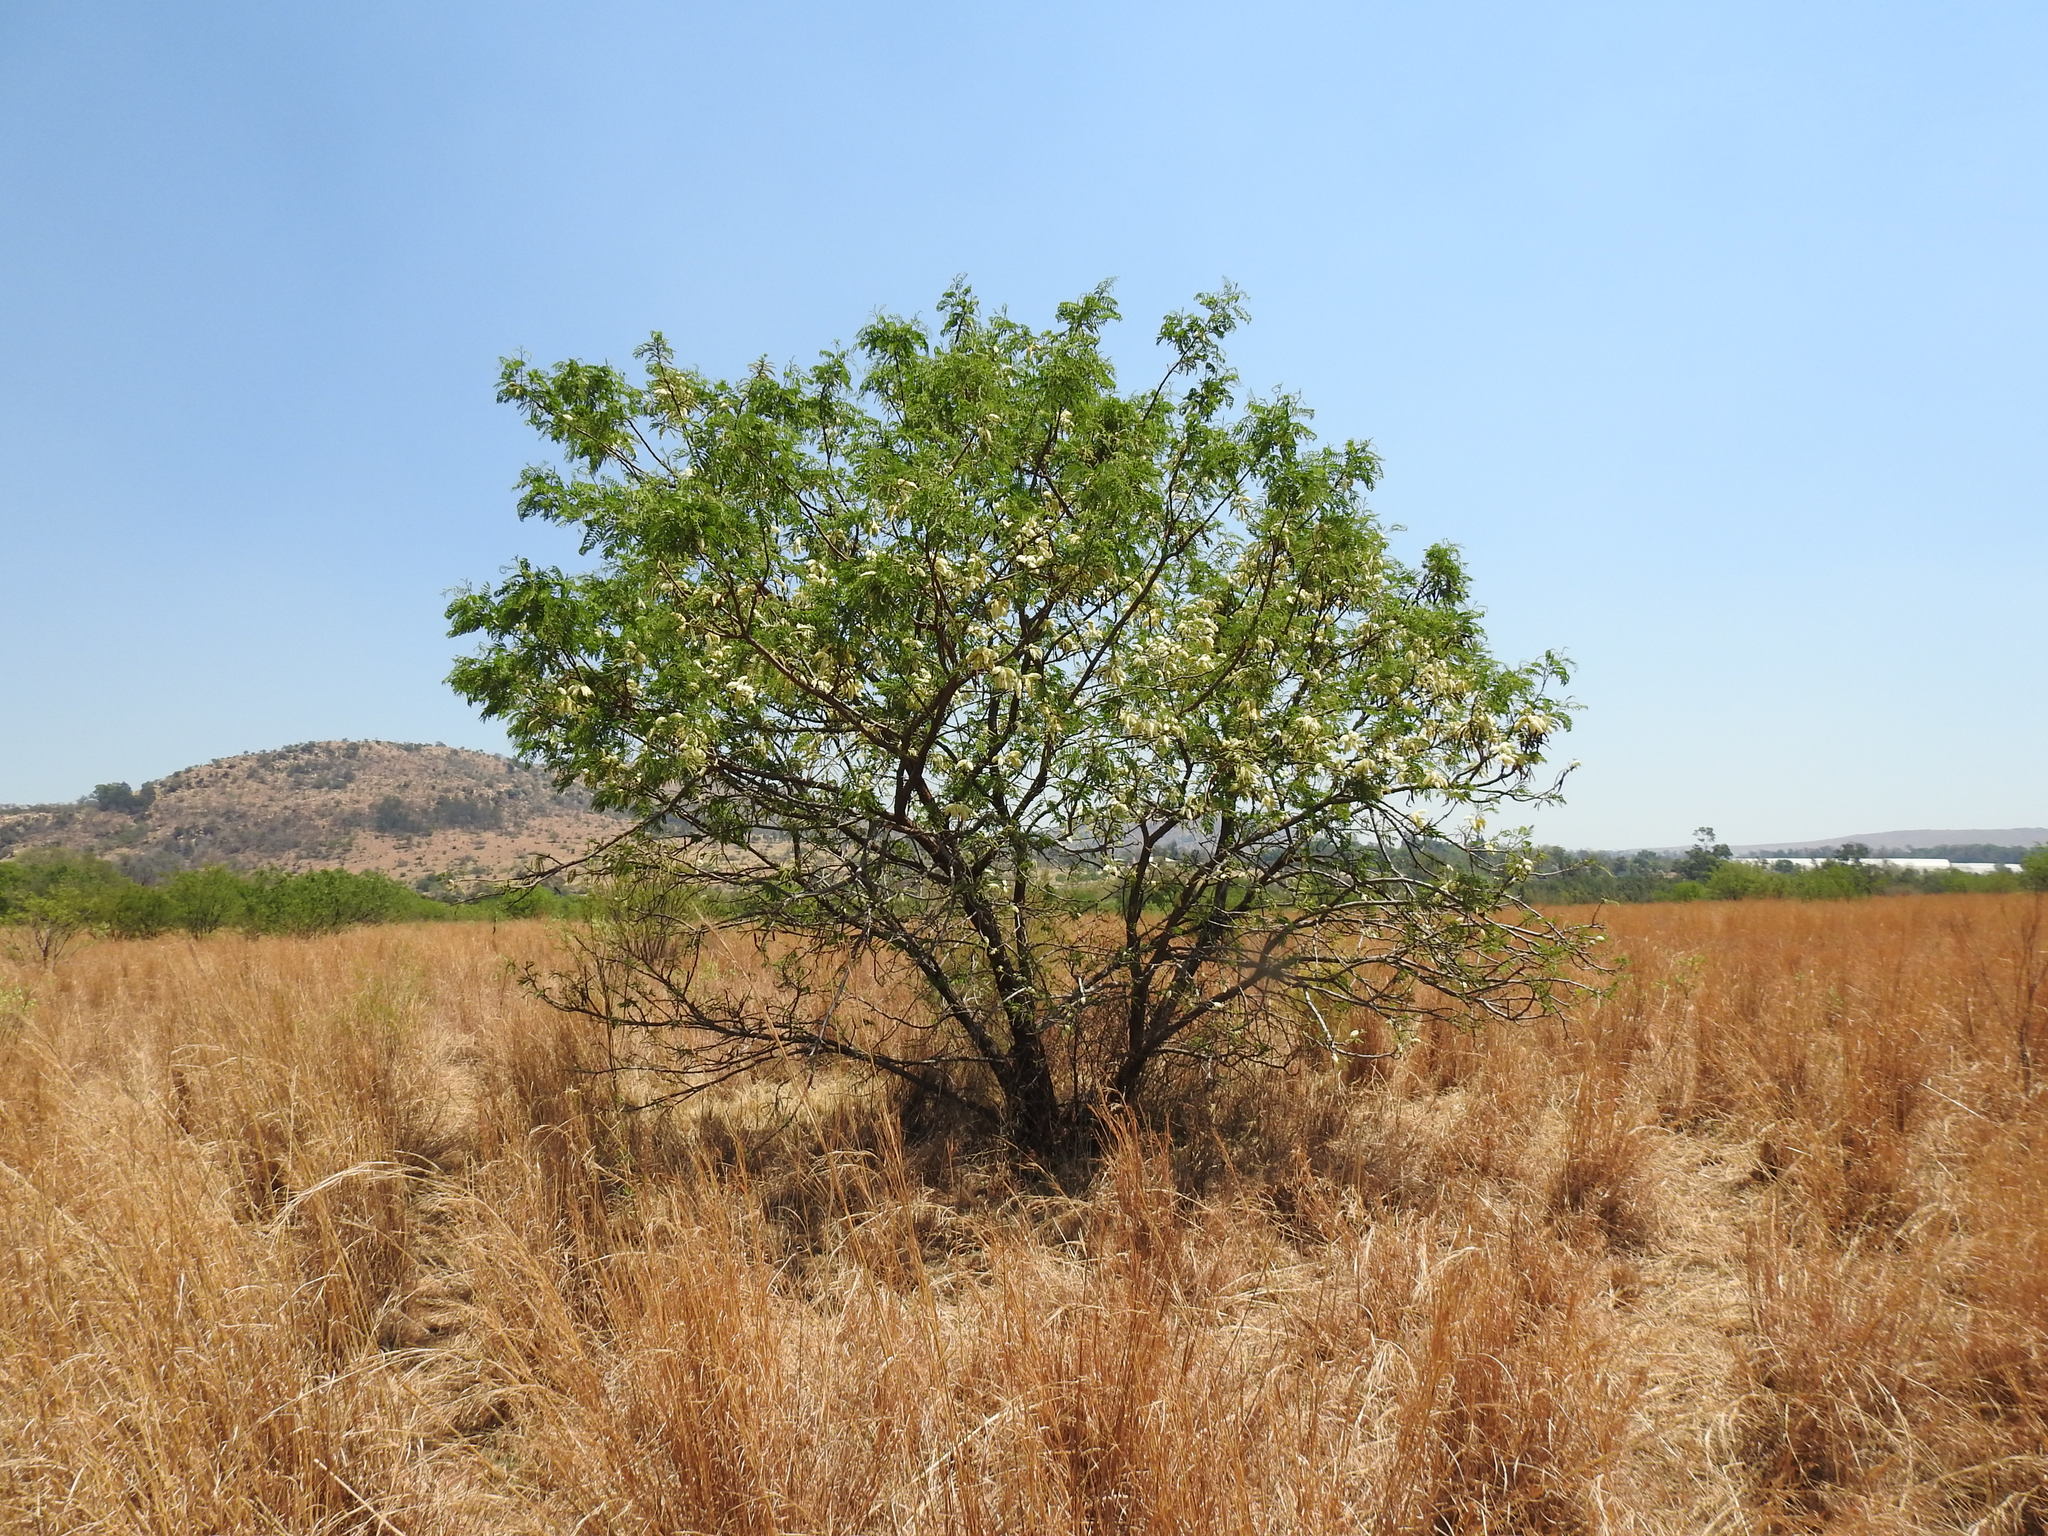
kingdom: Plantae
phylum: Tracheophyta
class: Magnoliopsida
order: Fabales
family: Fabaceae
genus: Senegalia
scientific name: Senegalia caffra
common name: Cat thorn
